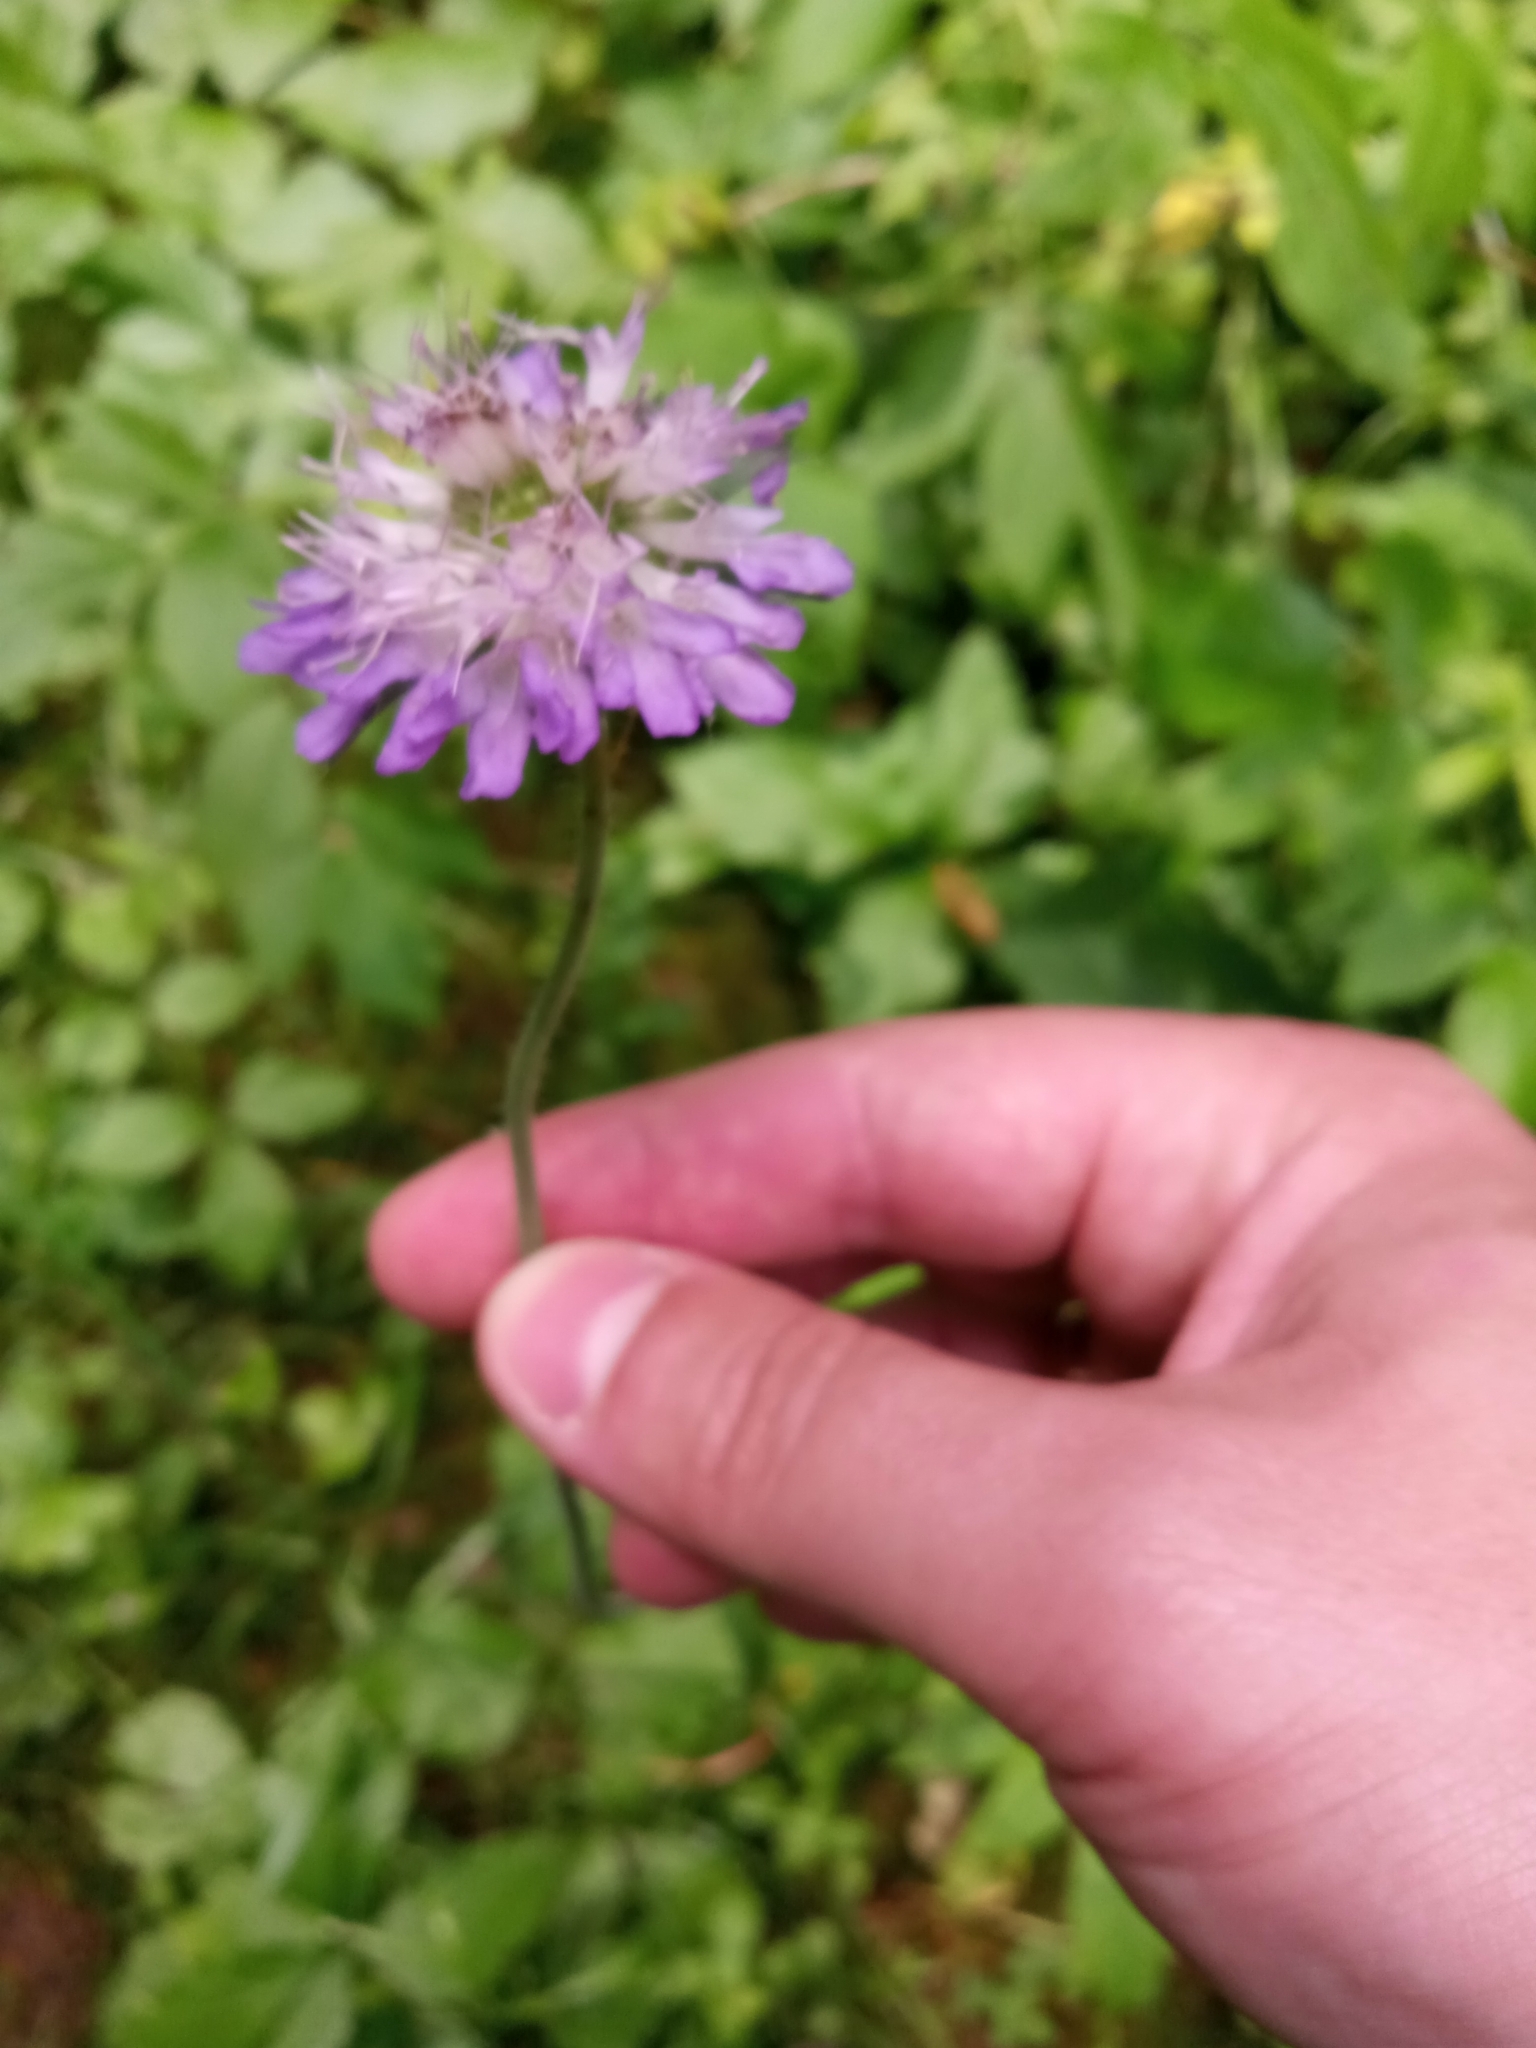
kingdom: Plantae
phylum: Tracheophyta
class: Magnoliopsida
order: Dipsacales
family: Caprifoliaceae
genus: Knautia
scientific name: Knautia arvensis
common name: Field scabiosa
